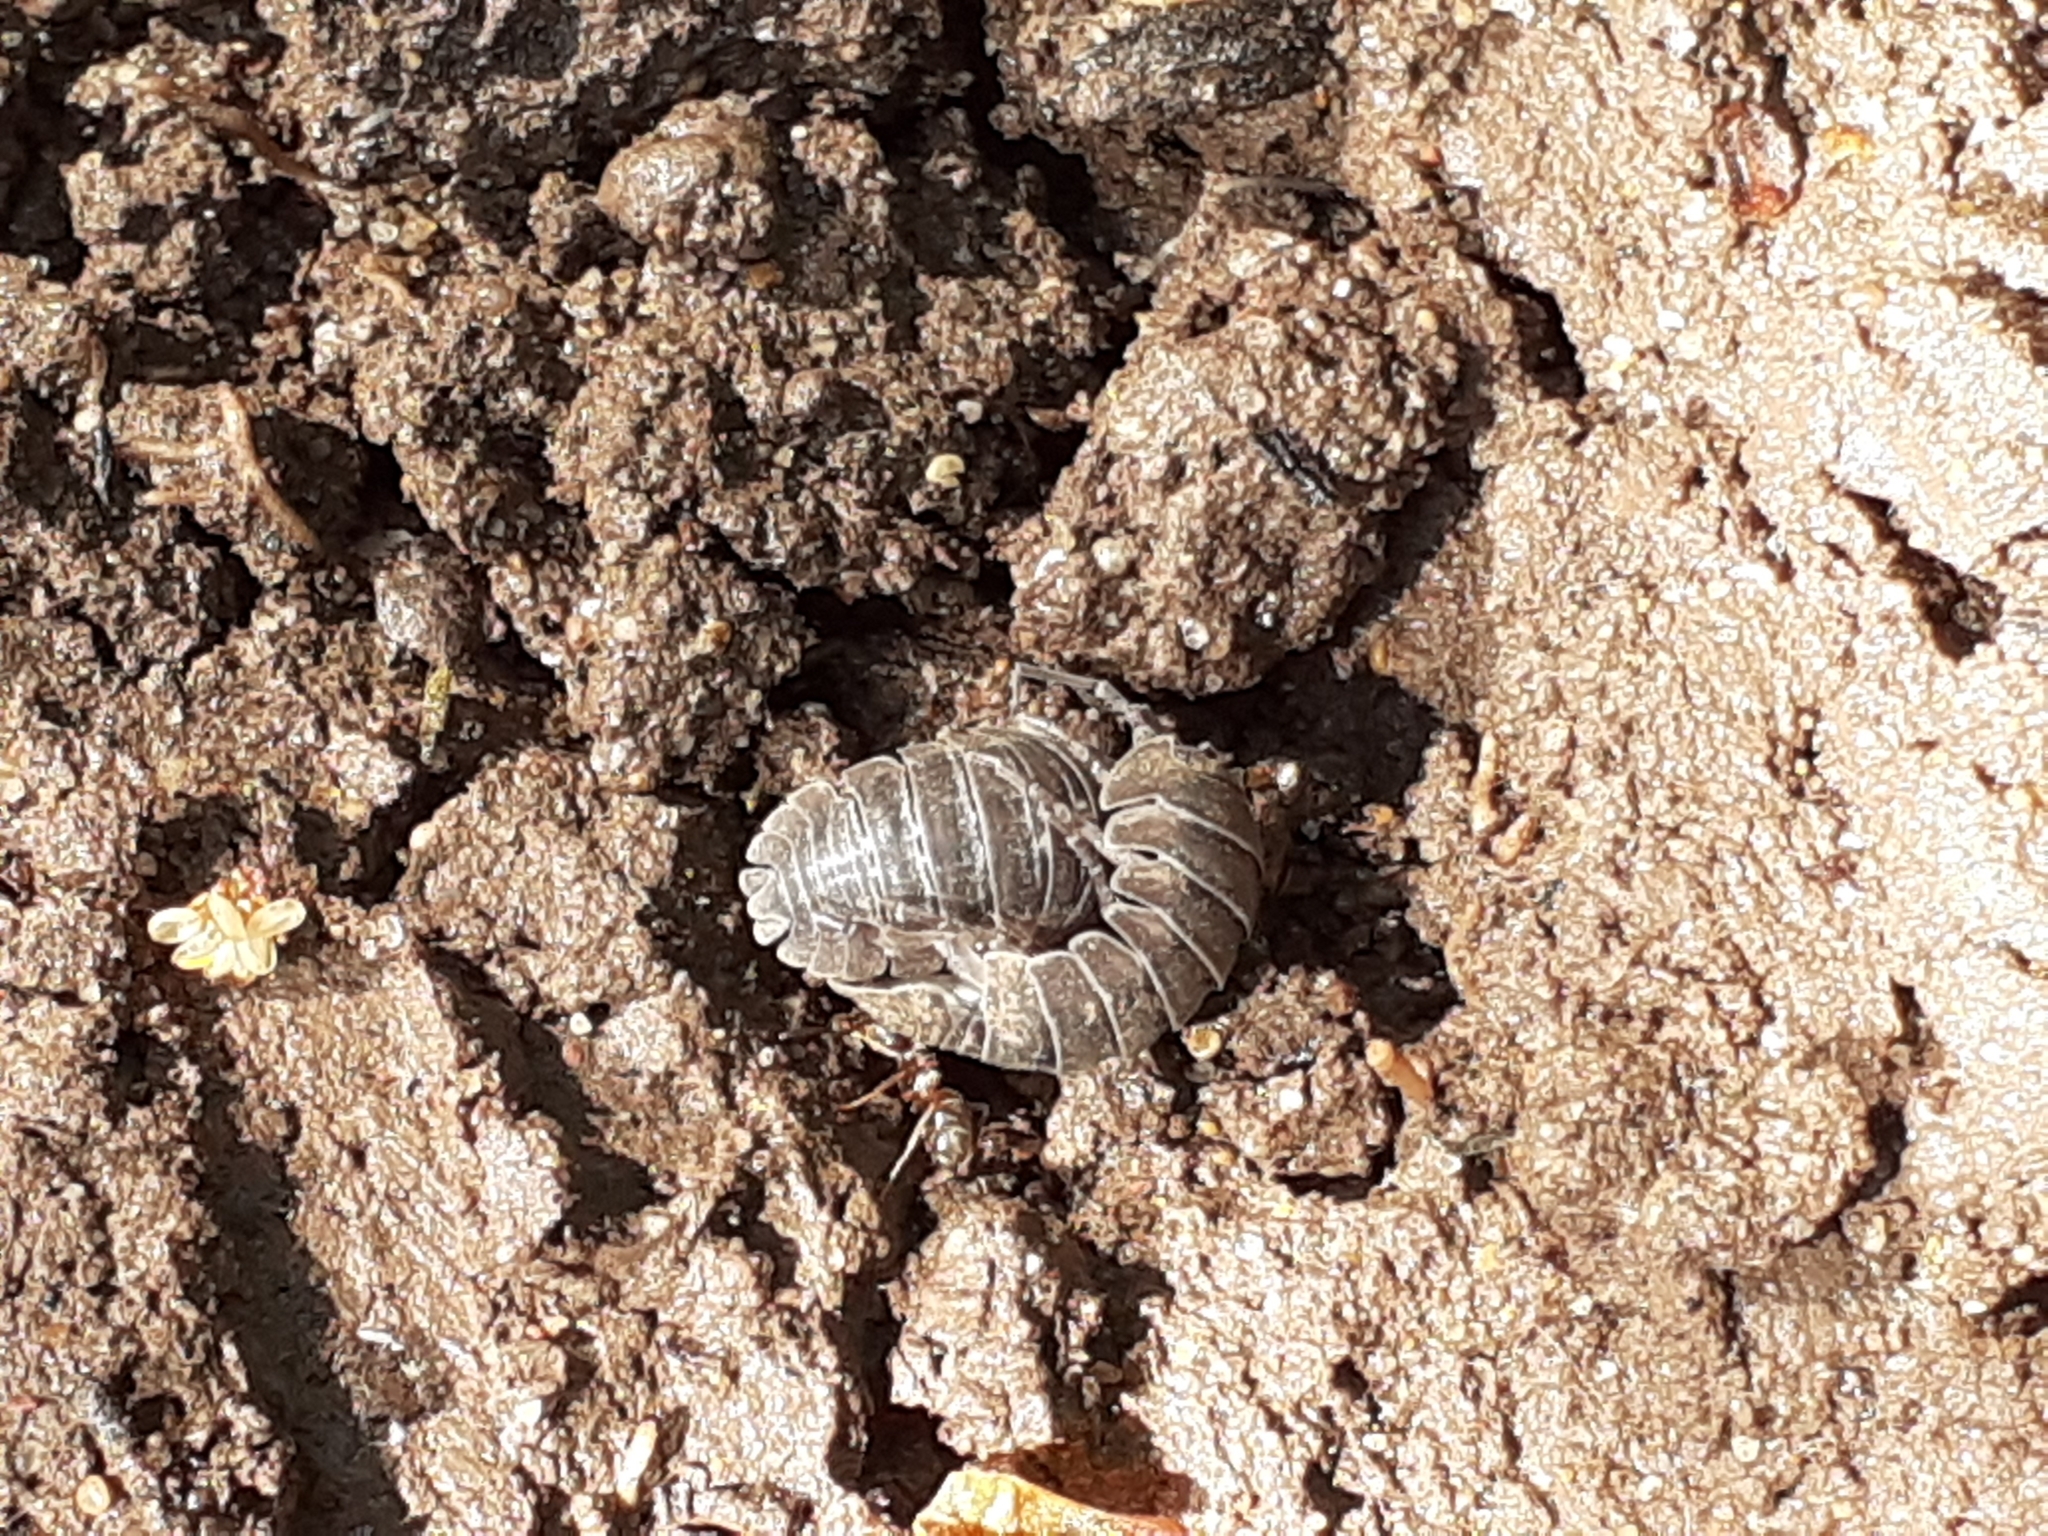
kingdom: Animalia
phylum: Arthropoda
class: Malacostraca
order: Isopoda
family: Armadillidiidae
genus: Armadillidium
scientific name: Armadillidium vulgare
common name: Common pill woodlouse
